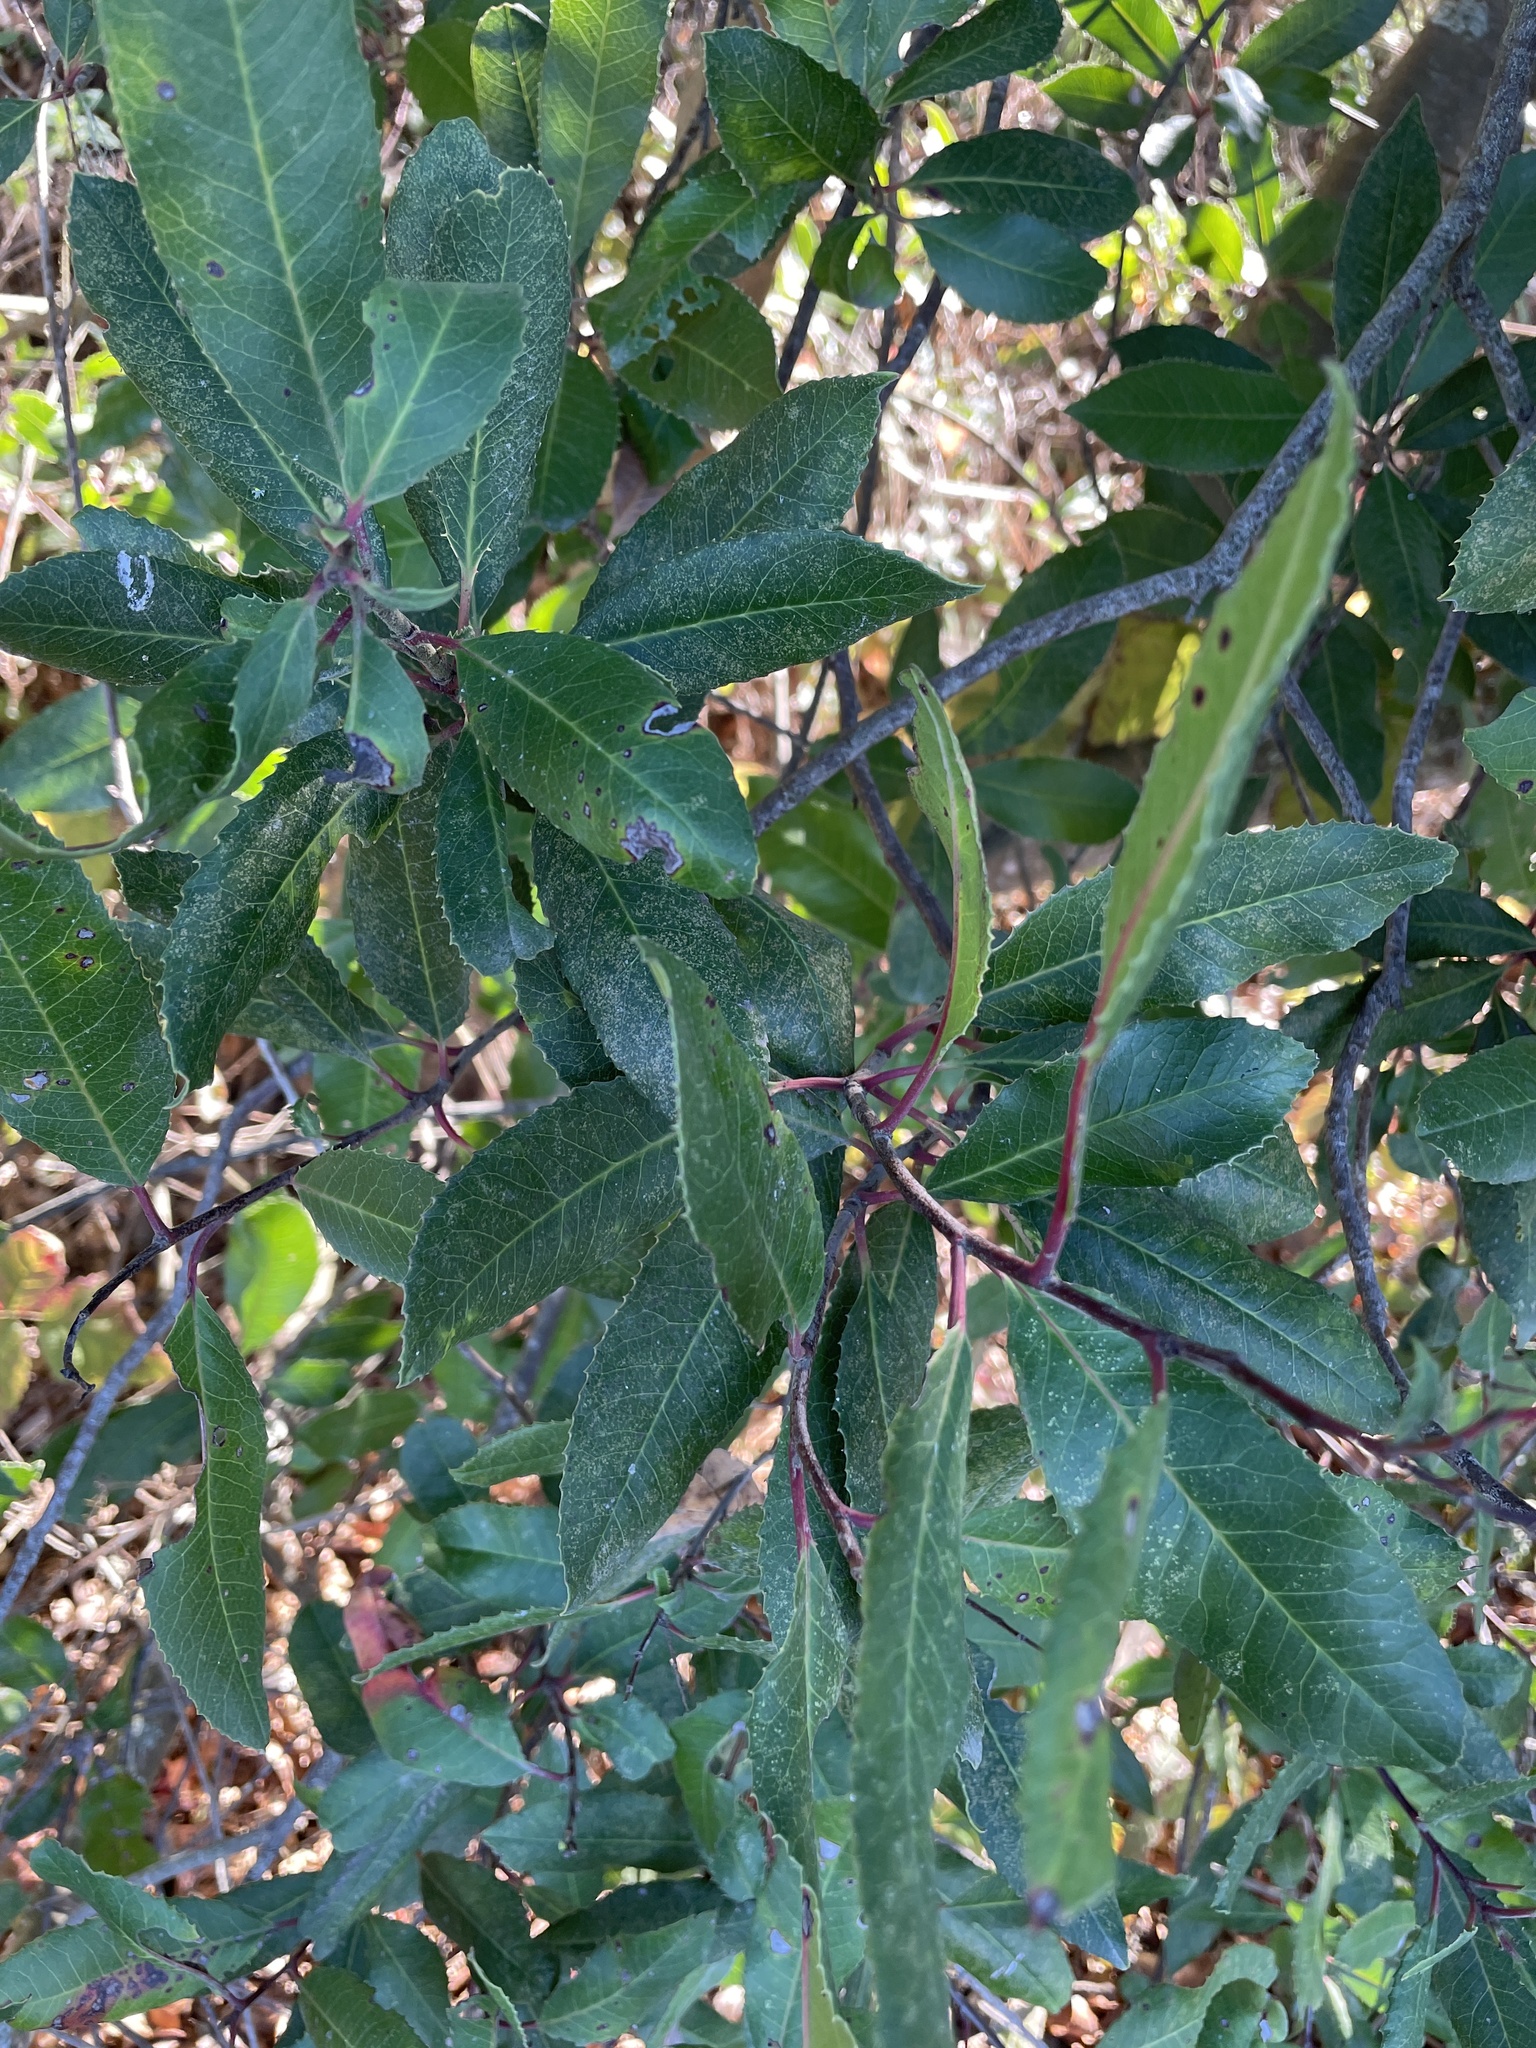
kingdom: Plantae
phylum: Tracheophyta
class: Magnoliopsida
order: Rosales
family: Rosaceae
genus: Heteromeles
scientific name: Heteromeles arbutifolia
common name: California-holly
